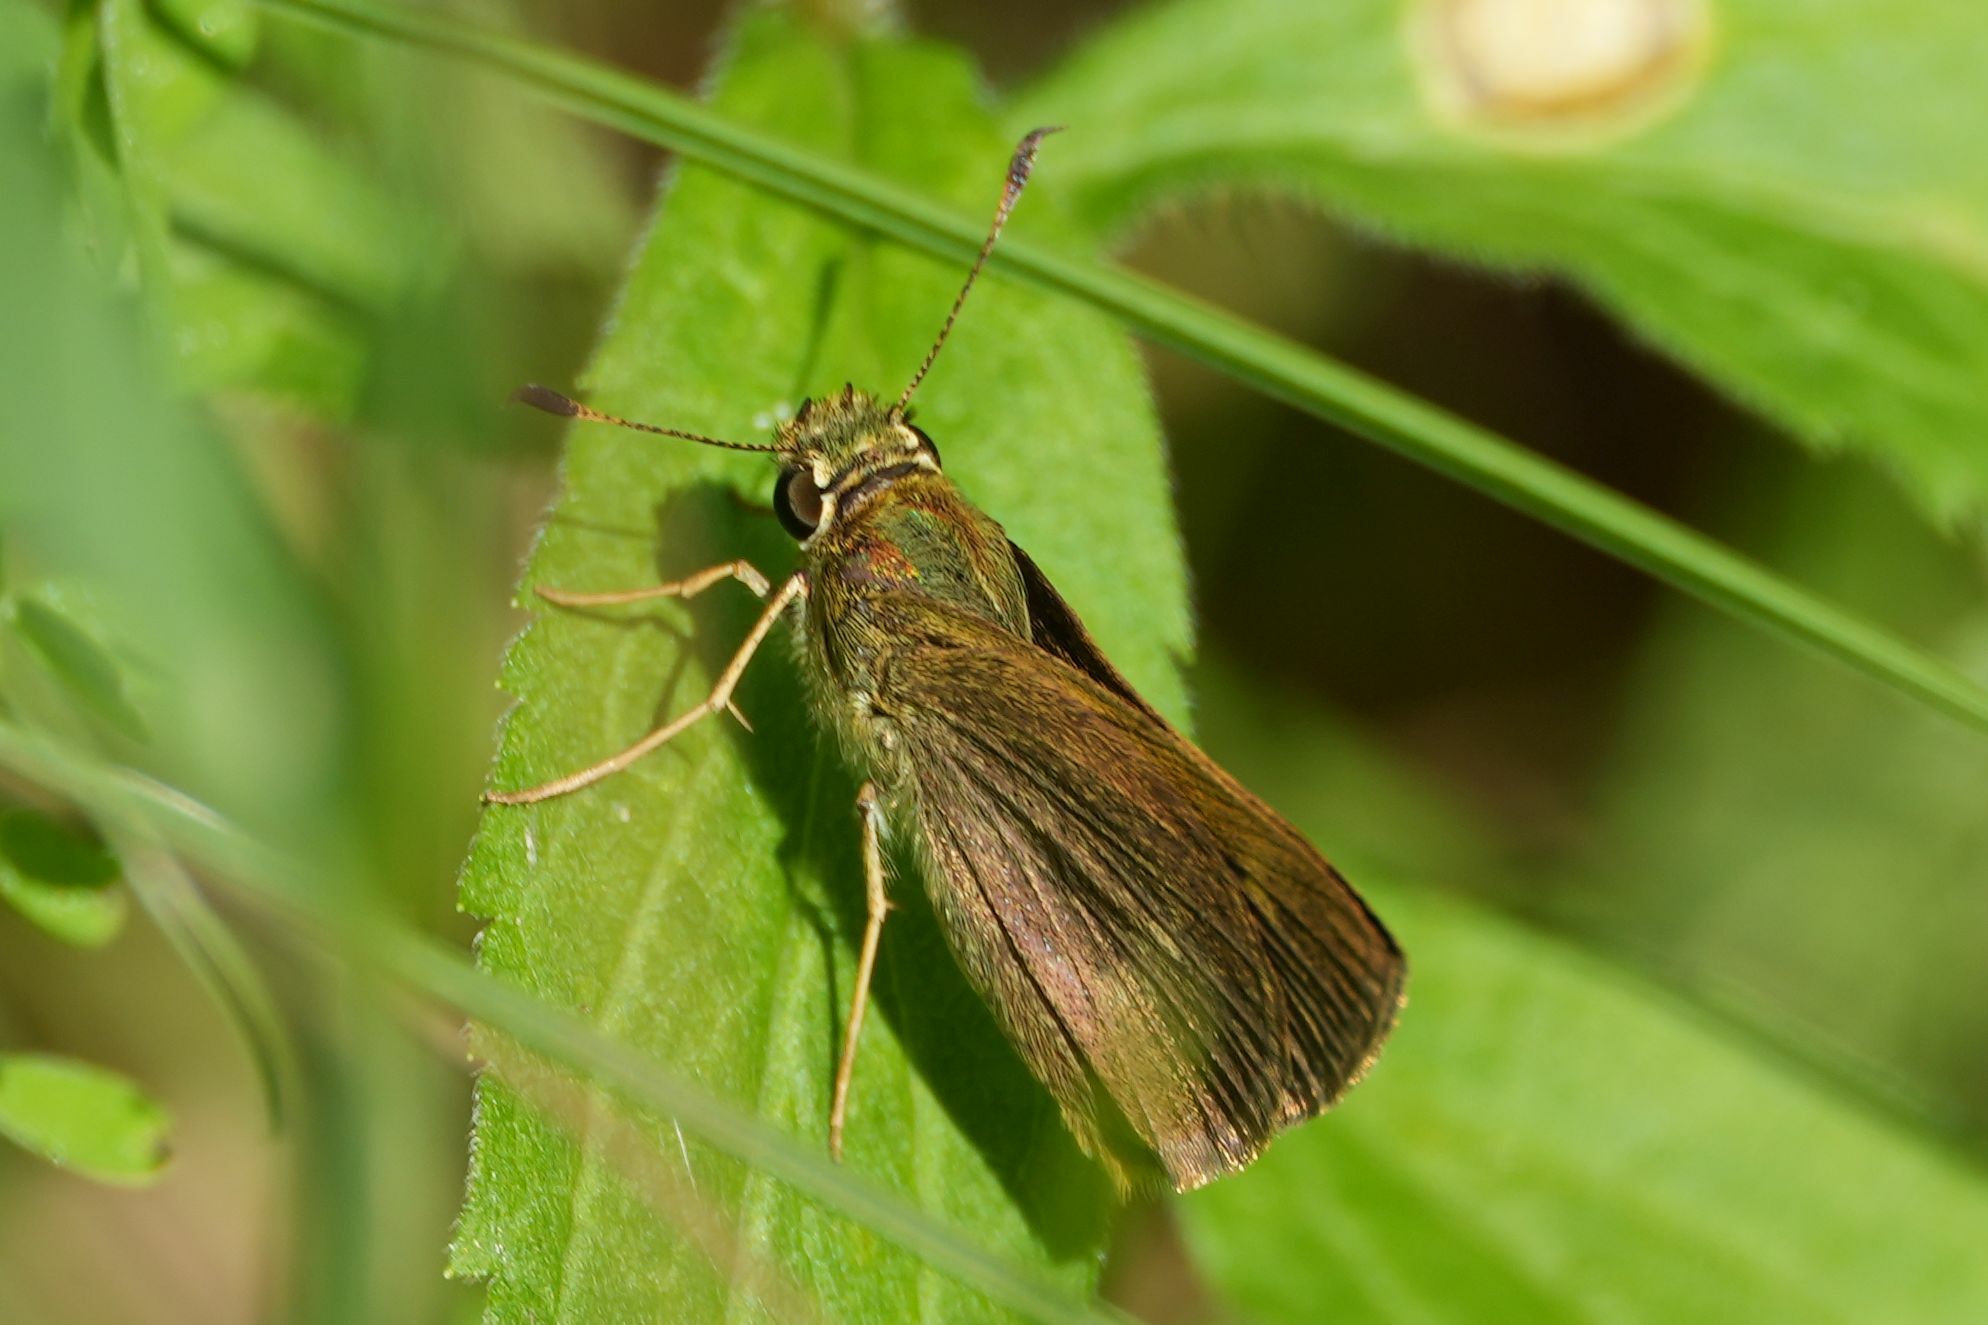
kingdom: Animalia
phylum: Arthropoda
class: Insecta
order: Lepidoptera
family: Hesperiidae
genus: Polites
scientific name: Polites egeremet
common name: Northern broken-dash
